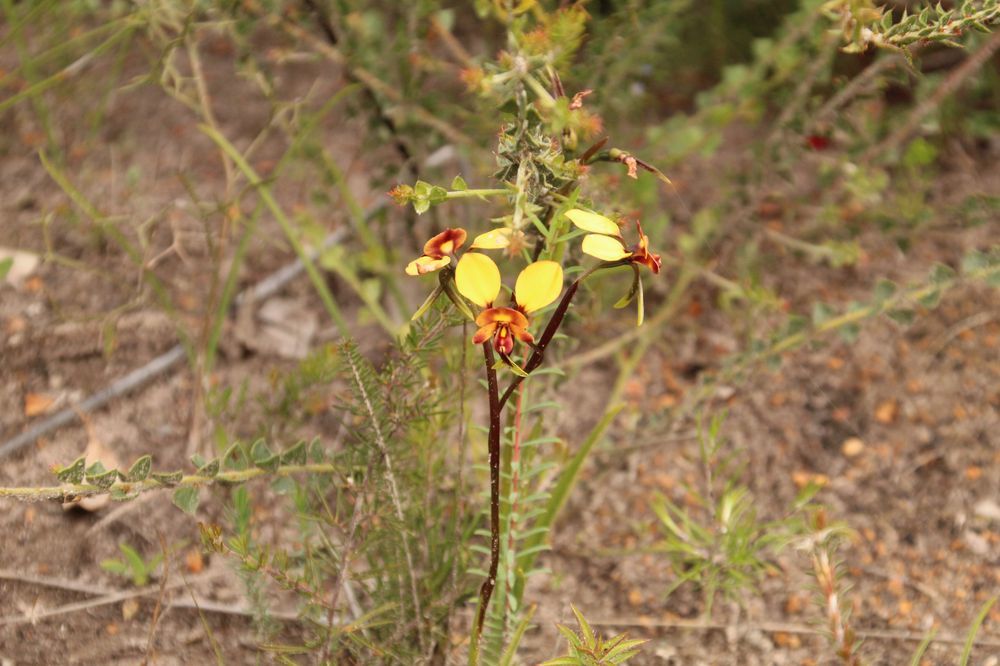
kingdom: Plantae
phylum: Tracheophyta
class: Liliopsida
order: Asparagales
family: Orchidaceae
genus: Diuris
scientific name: Diuris corymbosa
